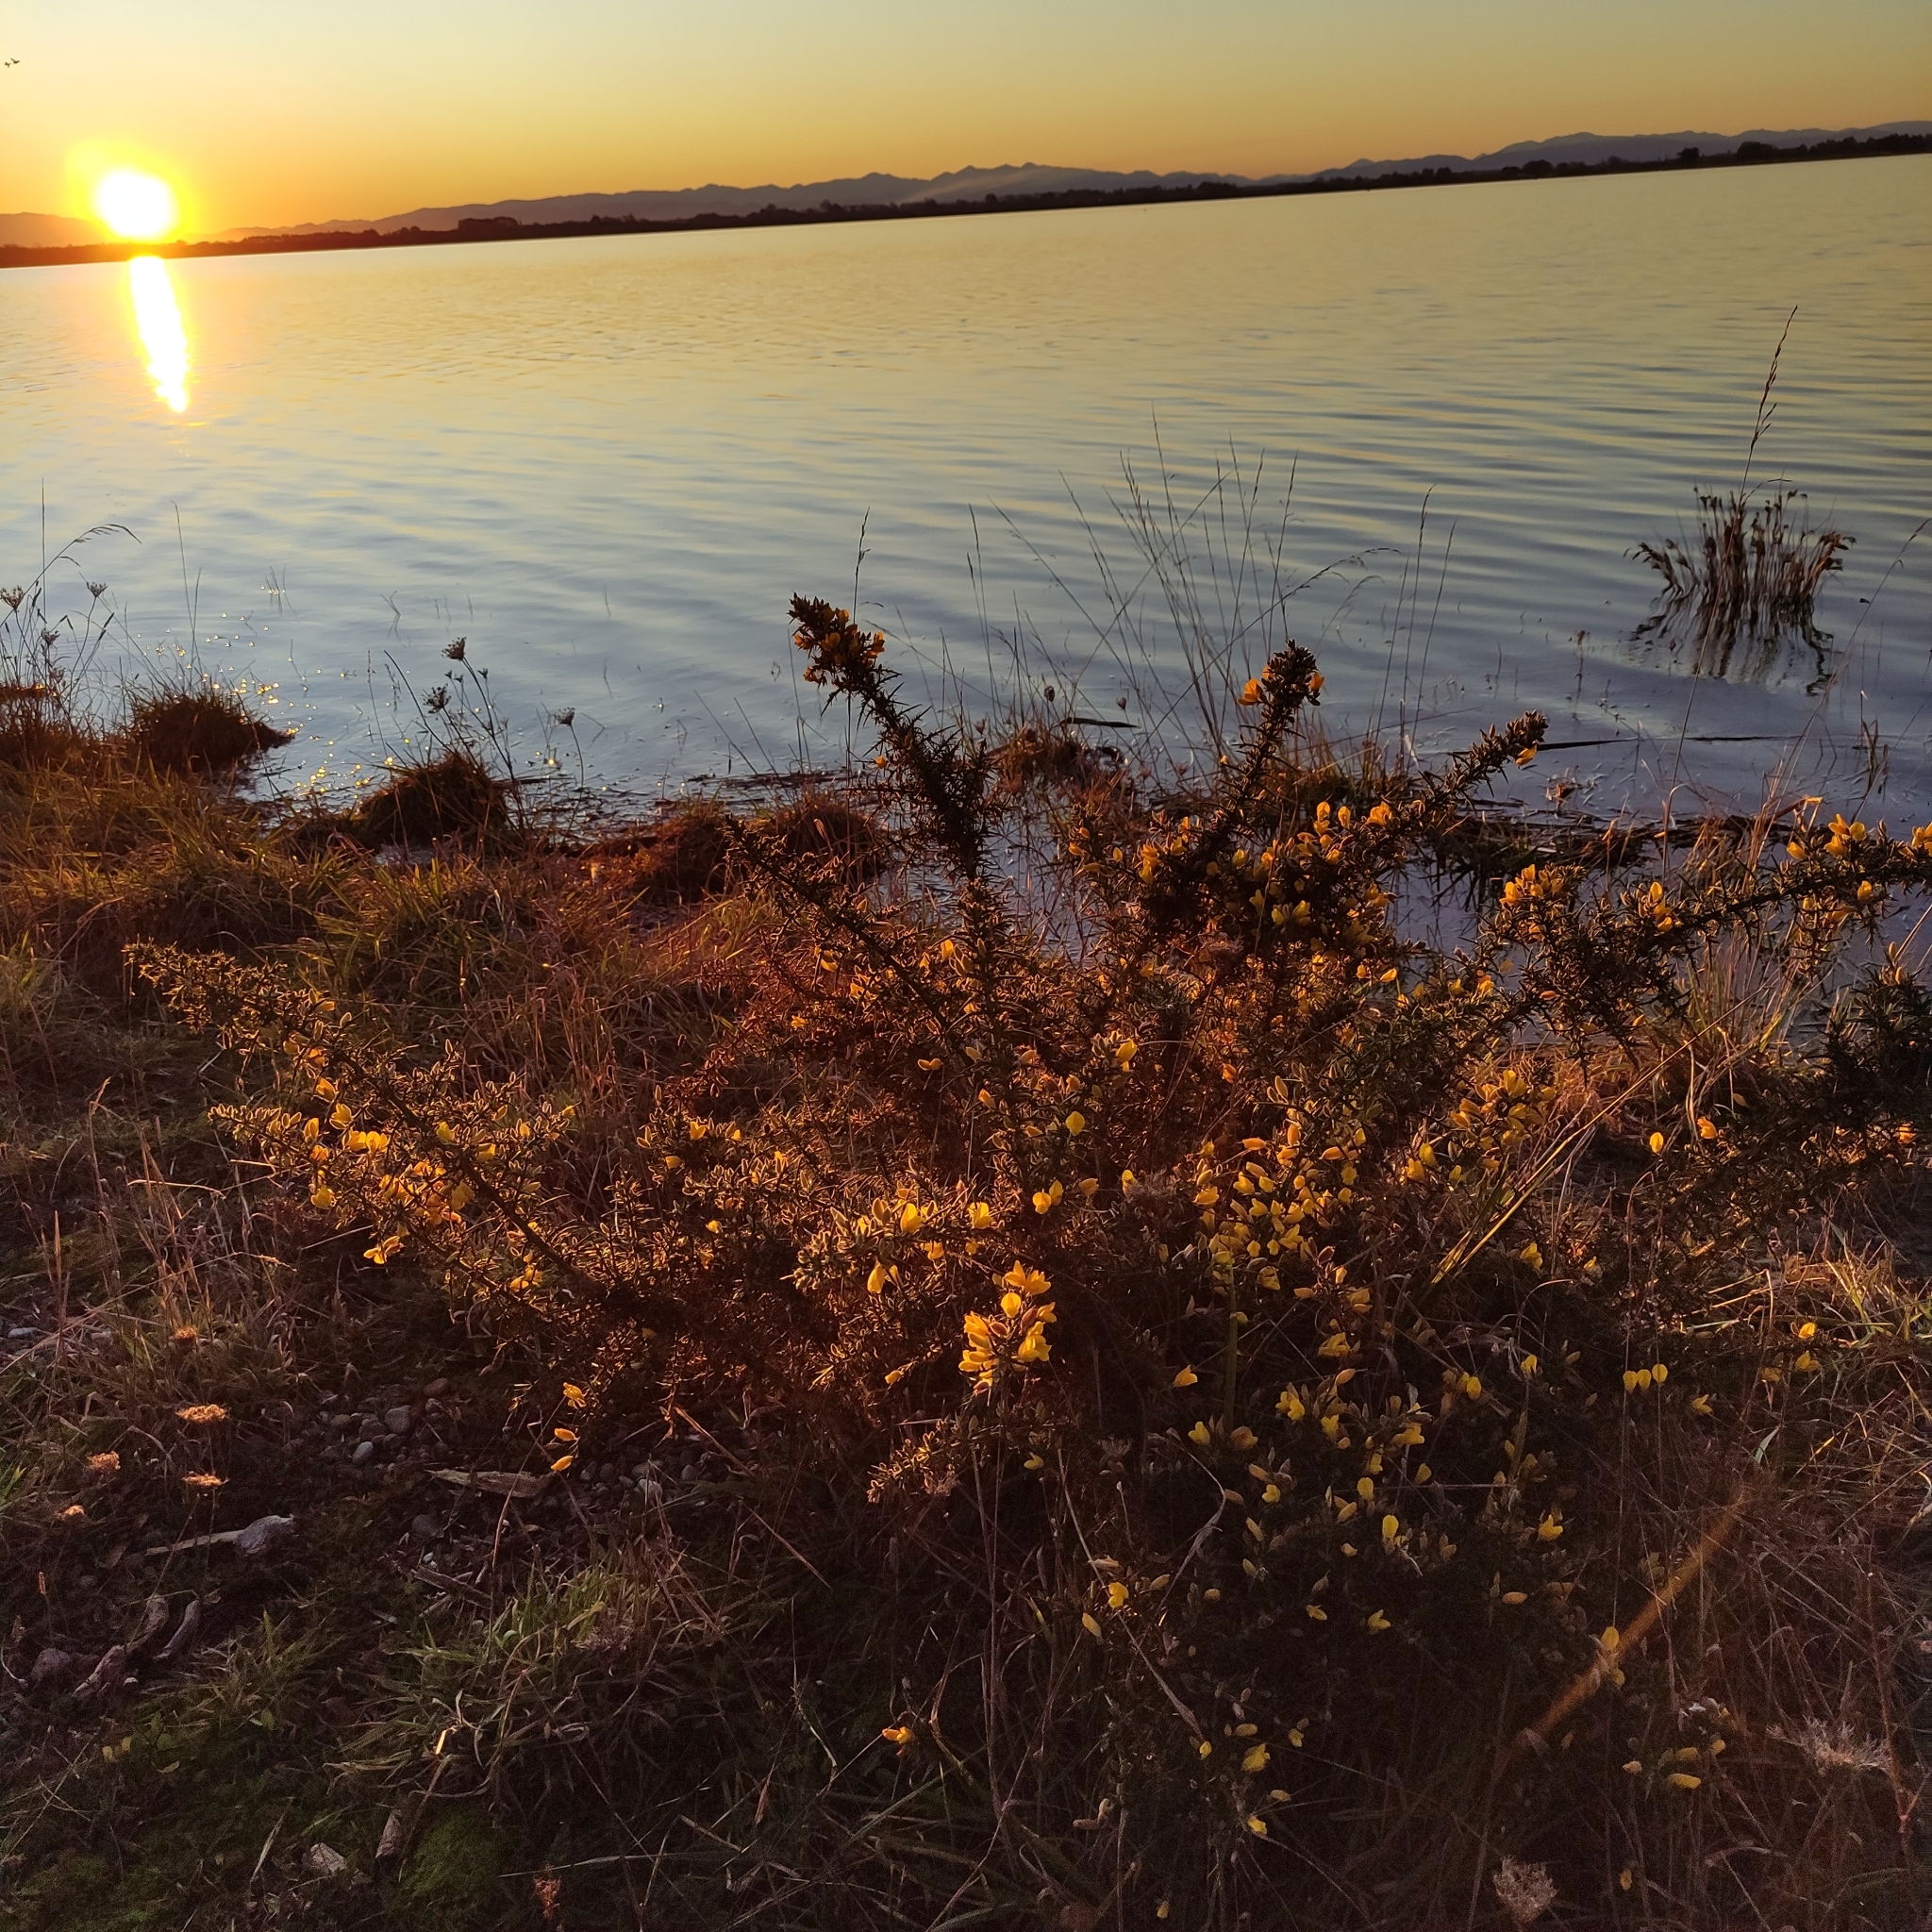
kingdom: Plantae
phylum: Tracheophyta
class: Magnoliopsida
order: Fabales
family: Fabaceae
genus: Ulex
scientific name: Ulex europaeus
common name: Common gorse
